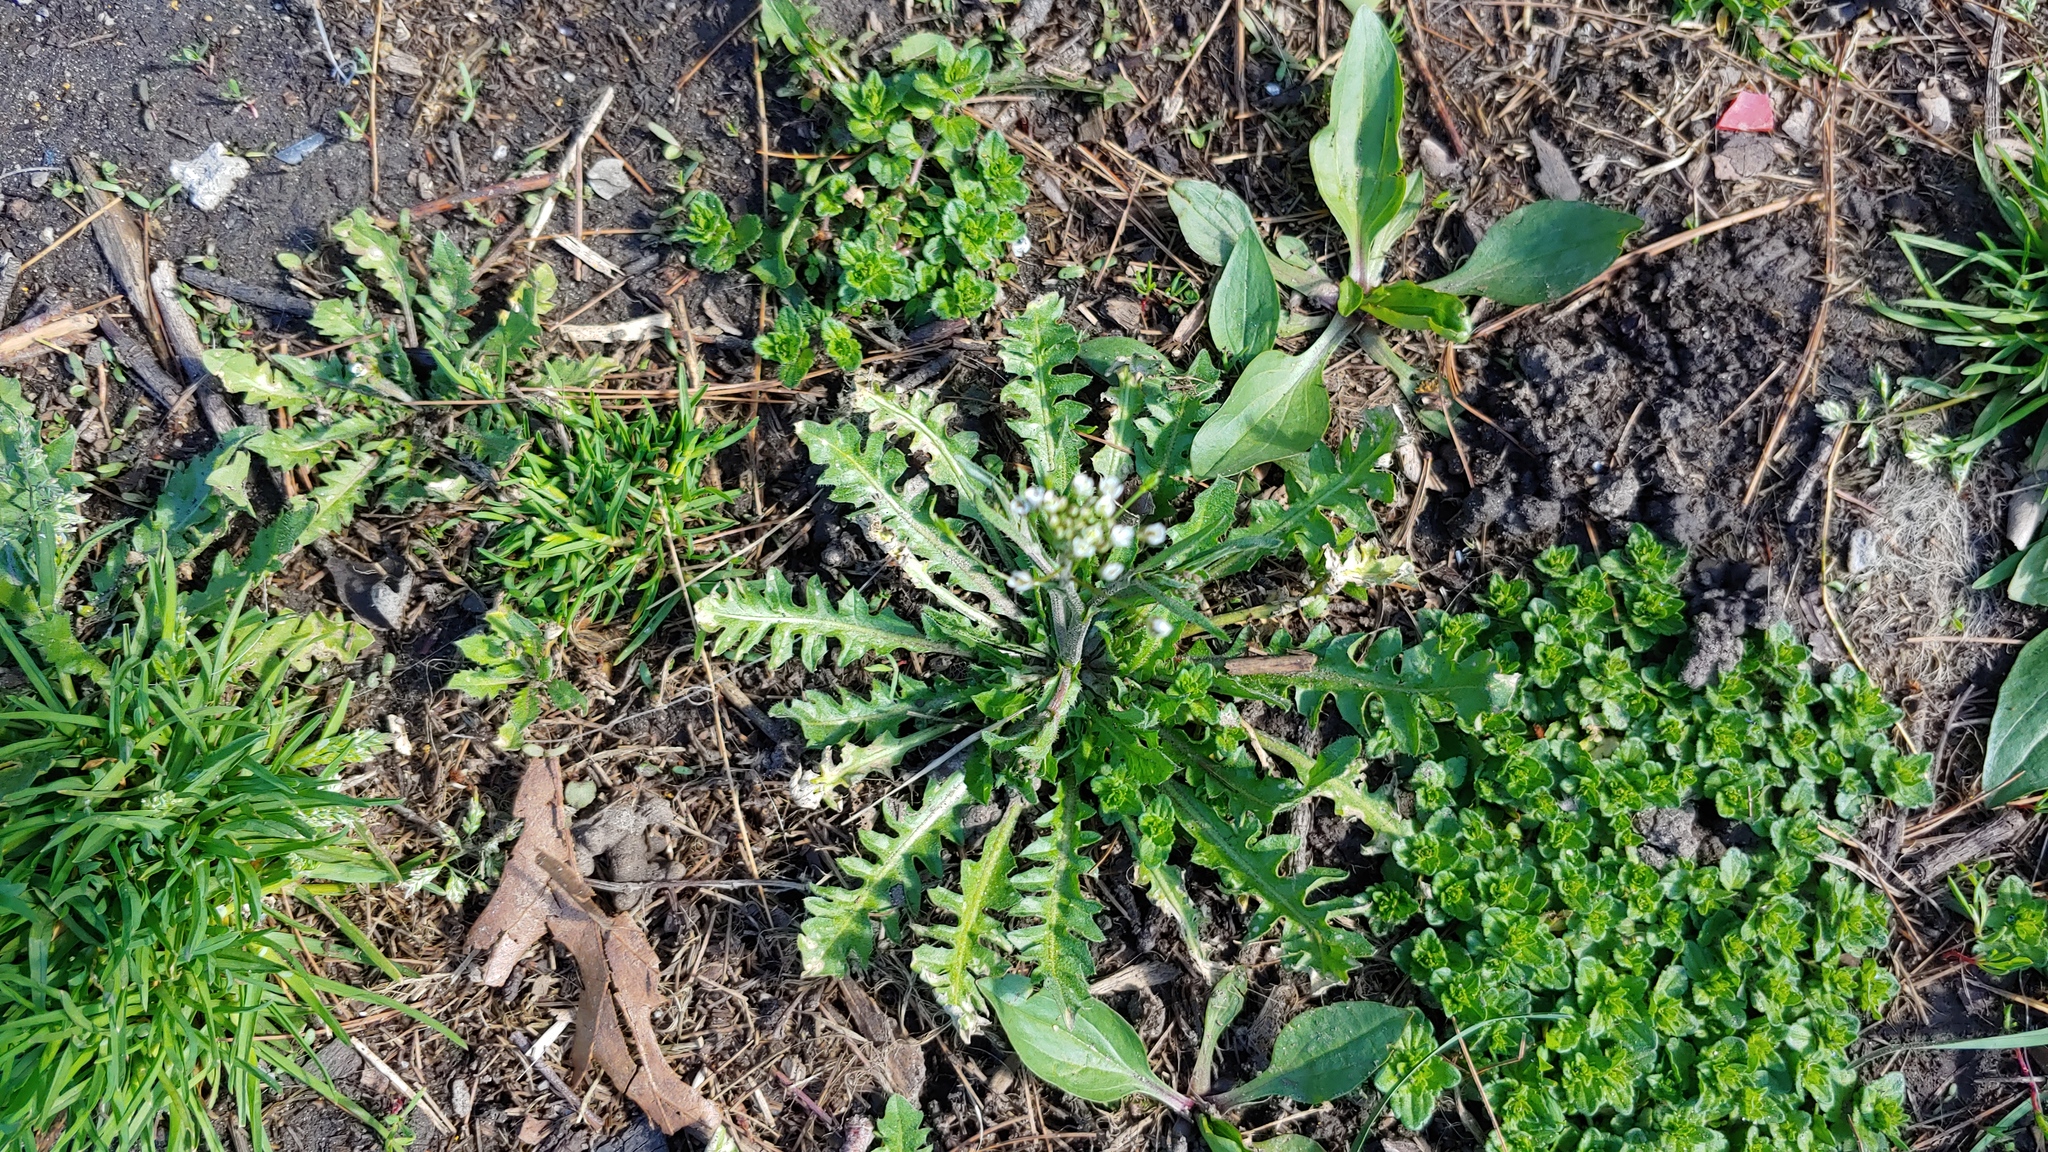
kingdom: Plantae
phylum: Tracheophyta
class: Magnoliopsida
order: Brassicales
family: Brassicaceae
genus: Capsella
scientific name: Capsella bursa-pastoris
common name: Shepherd's purse
